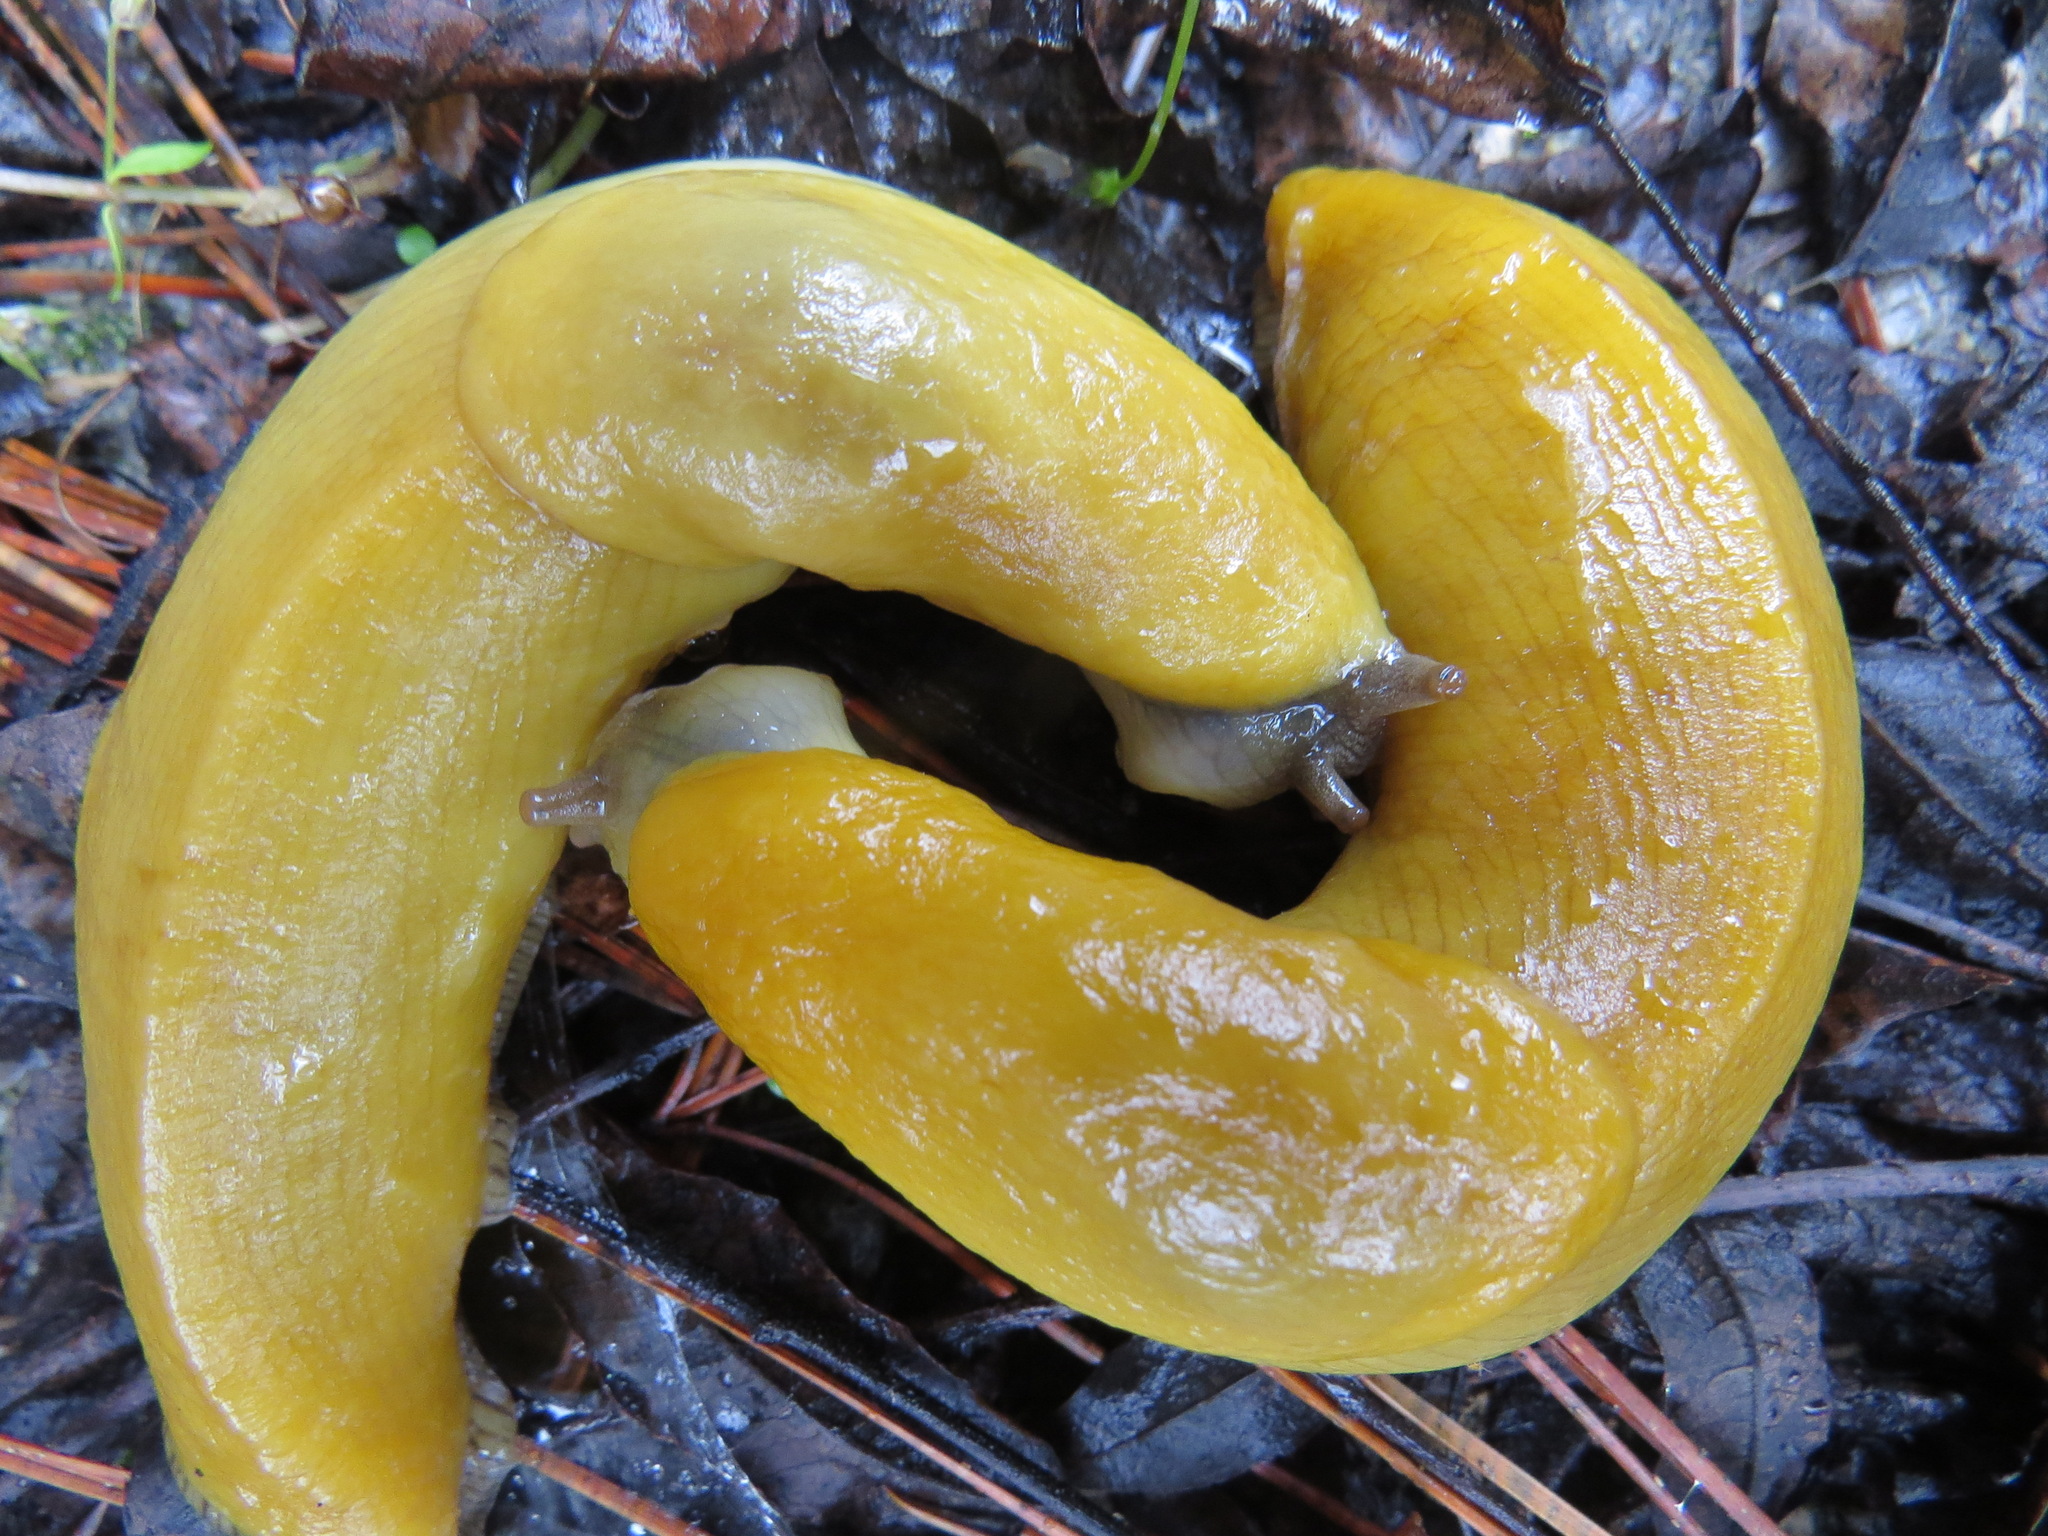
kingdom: Animalia
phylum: Mollusca
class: Gastropoda
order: Stylommatophora
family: Ariolimacidae
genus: Ariolimax
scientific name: Ariolimax californicus
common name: California banana slug
